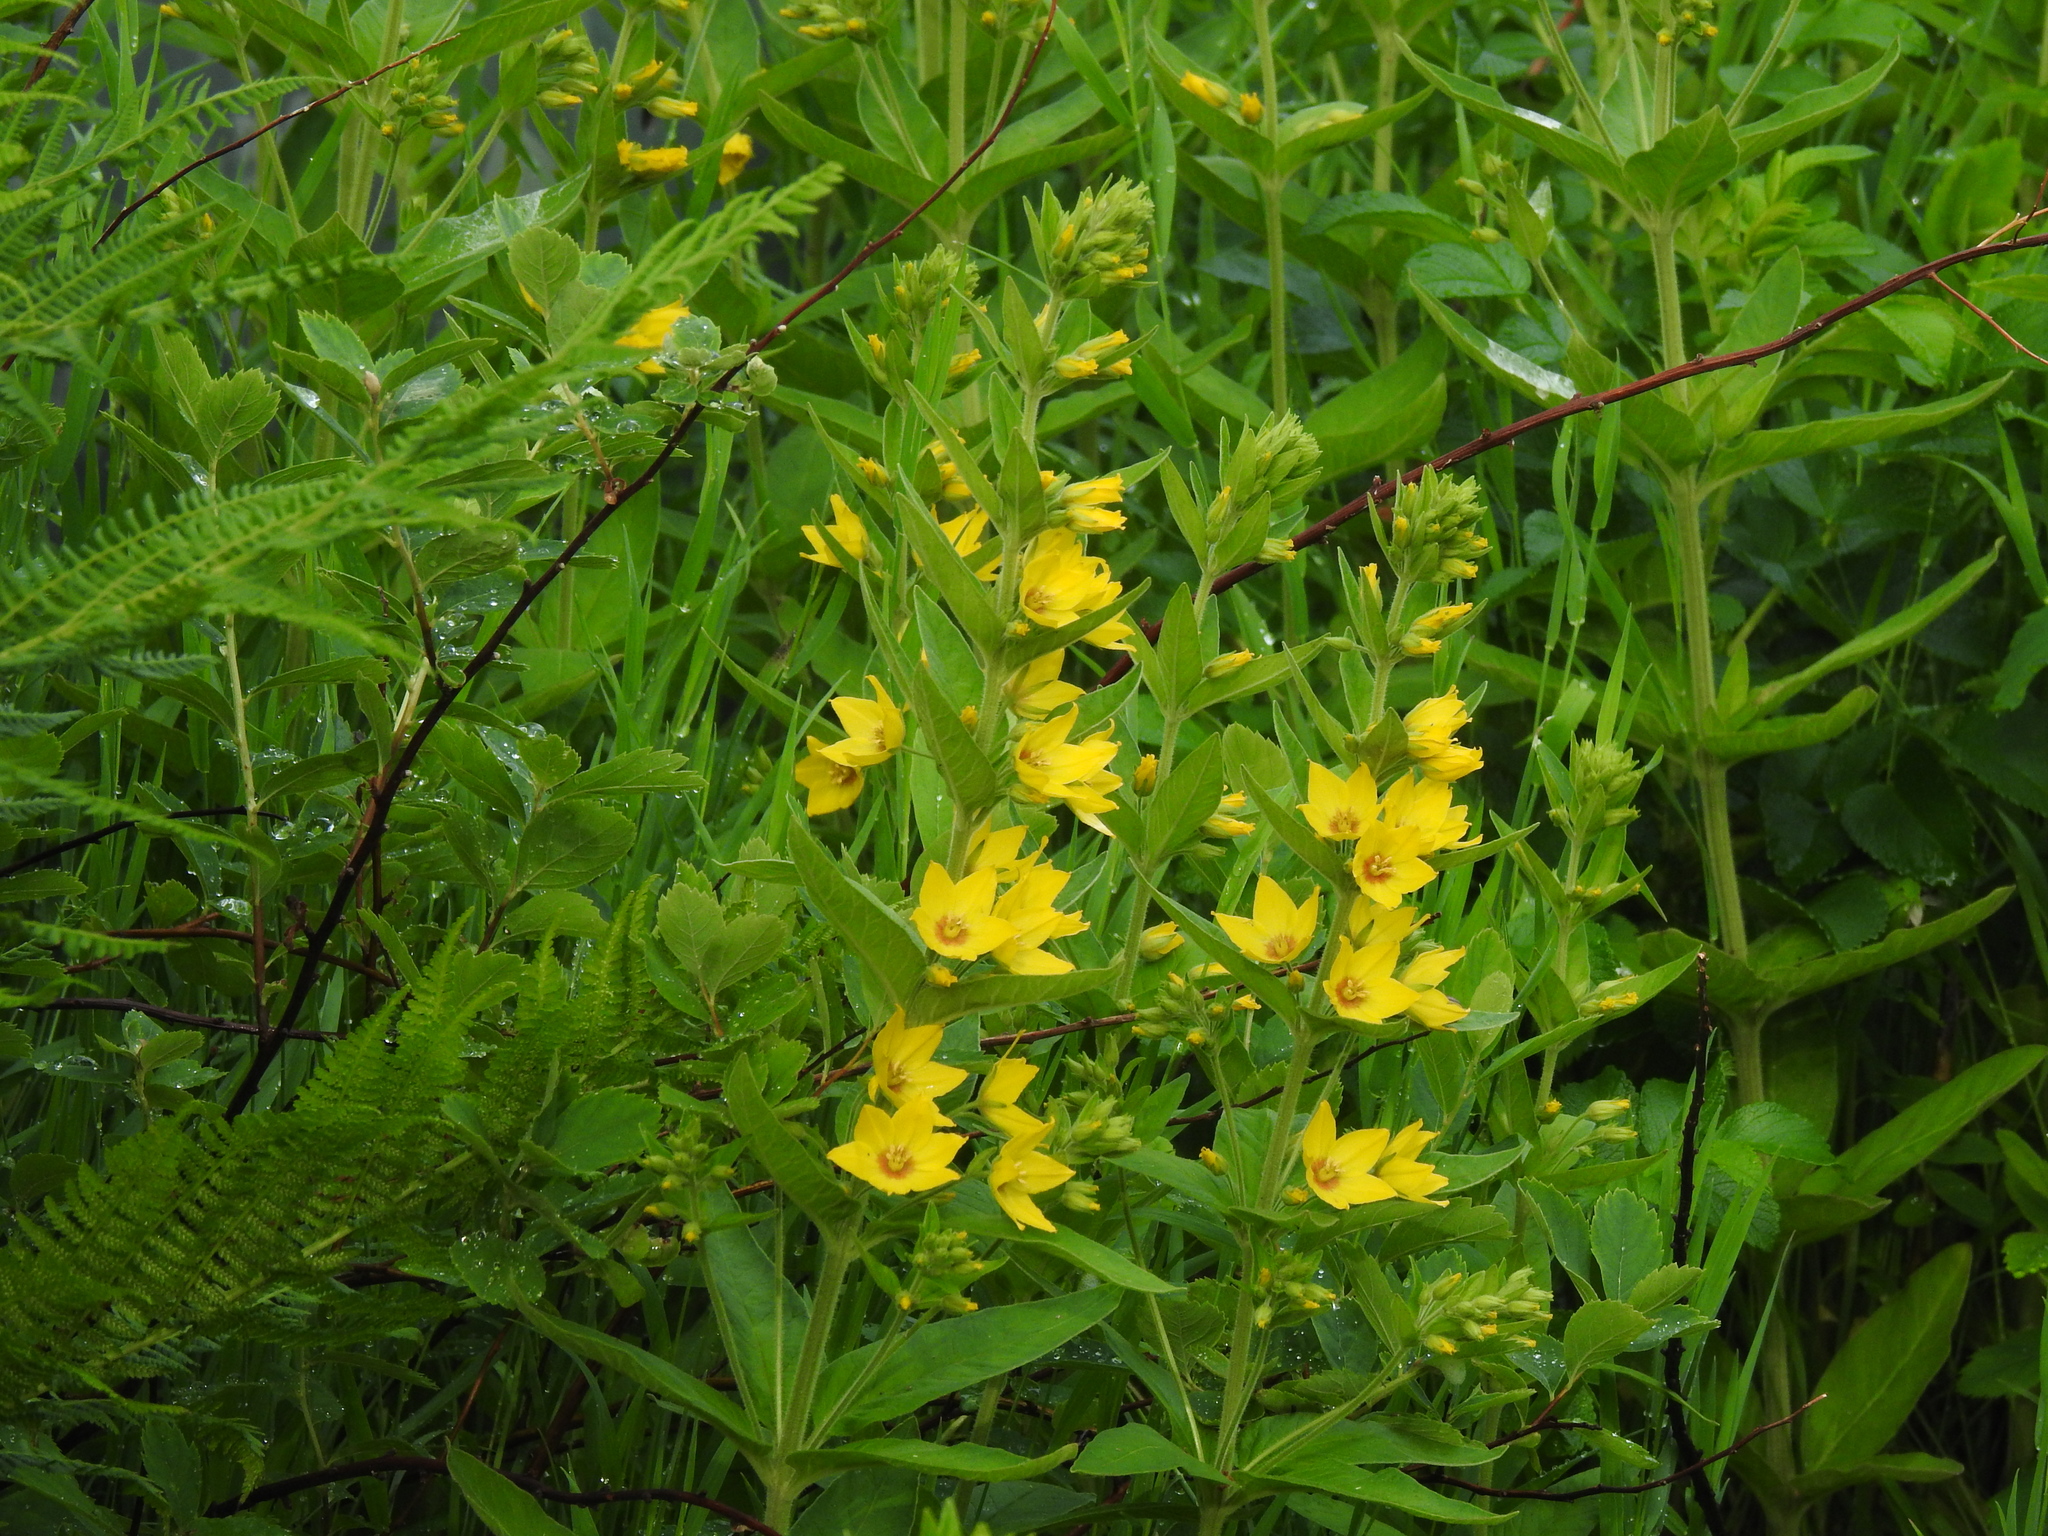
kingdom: Plantae
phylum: Tracheophyta
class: Magnoliopsida
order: Ericales
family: Primulaceae
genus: Lysimachia
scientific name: Lysimachia punctata
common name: Dotted loosestrife
